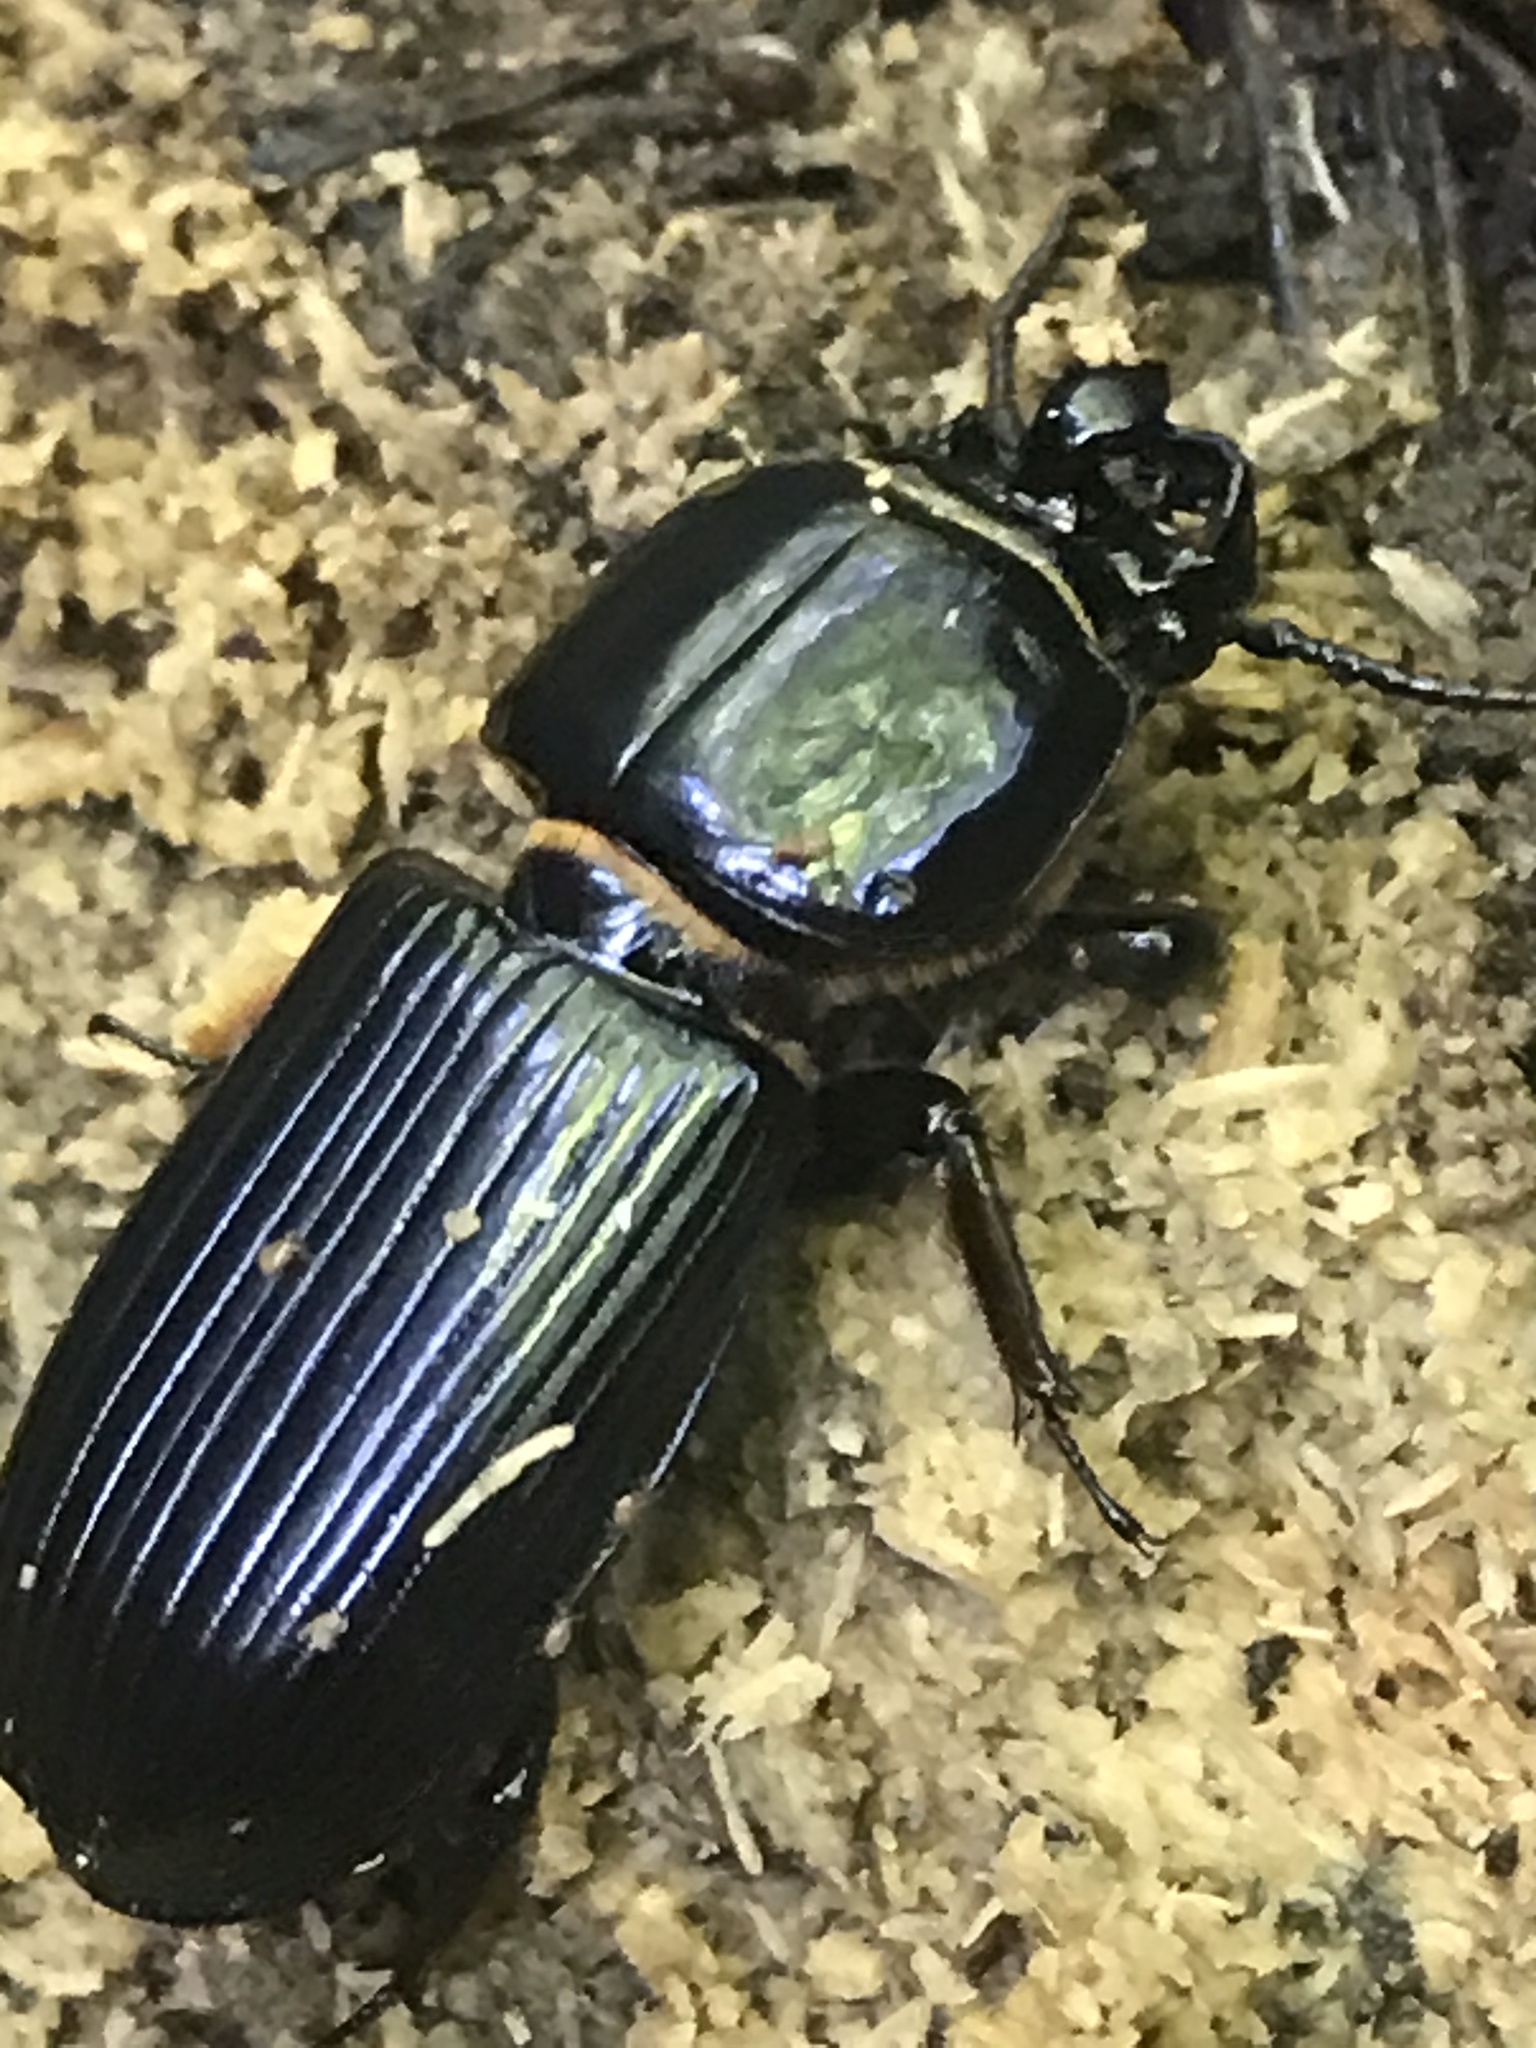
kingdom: Animalia
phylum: Arthropoda
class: Insecta
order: Coleoptera
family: Passalidae
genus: Odontotaenius
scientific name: Odontotaenius disjunctus
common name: Patent leather beetle
